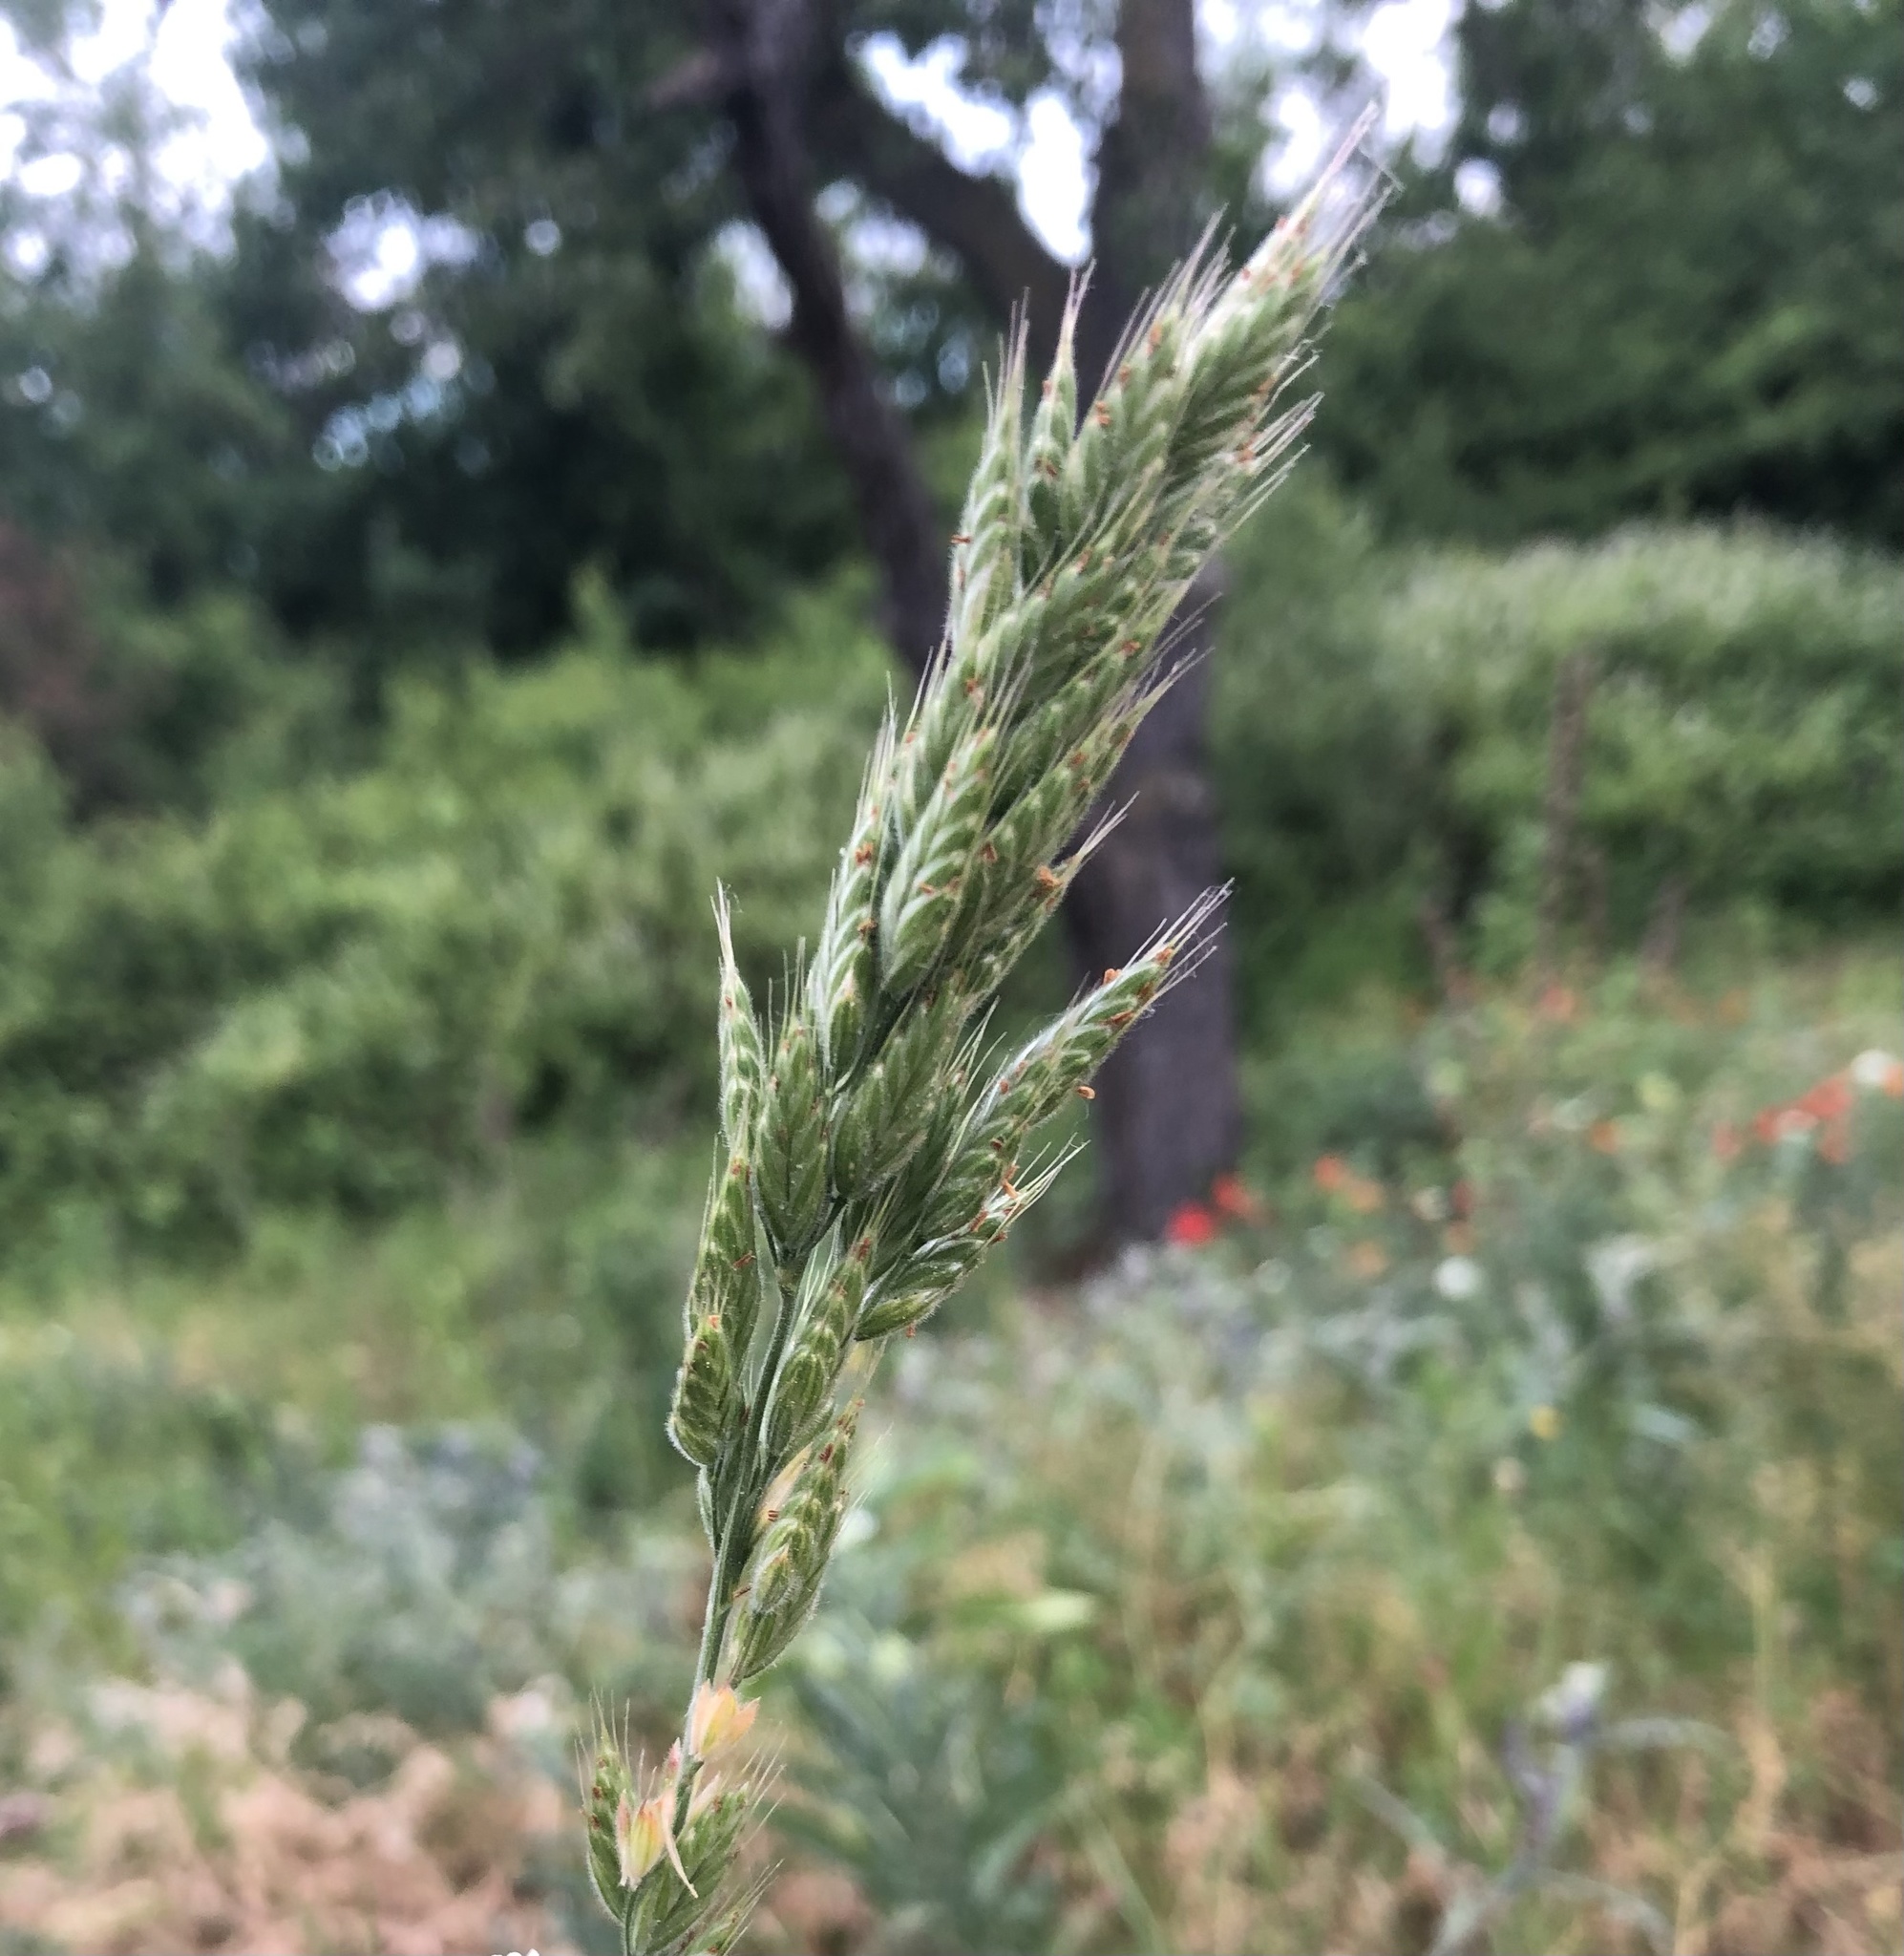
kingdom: Plantae
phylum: Tracheophyta
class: Liliopsida
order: Poales
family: Poaceae
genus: Bromus
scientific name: Bromus hordeaceus
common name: Soft brome
